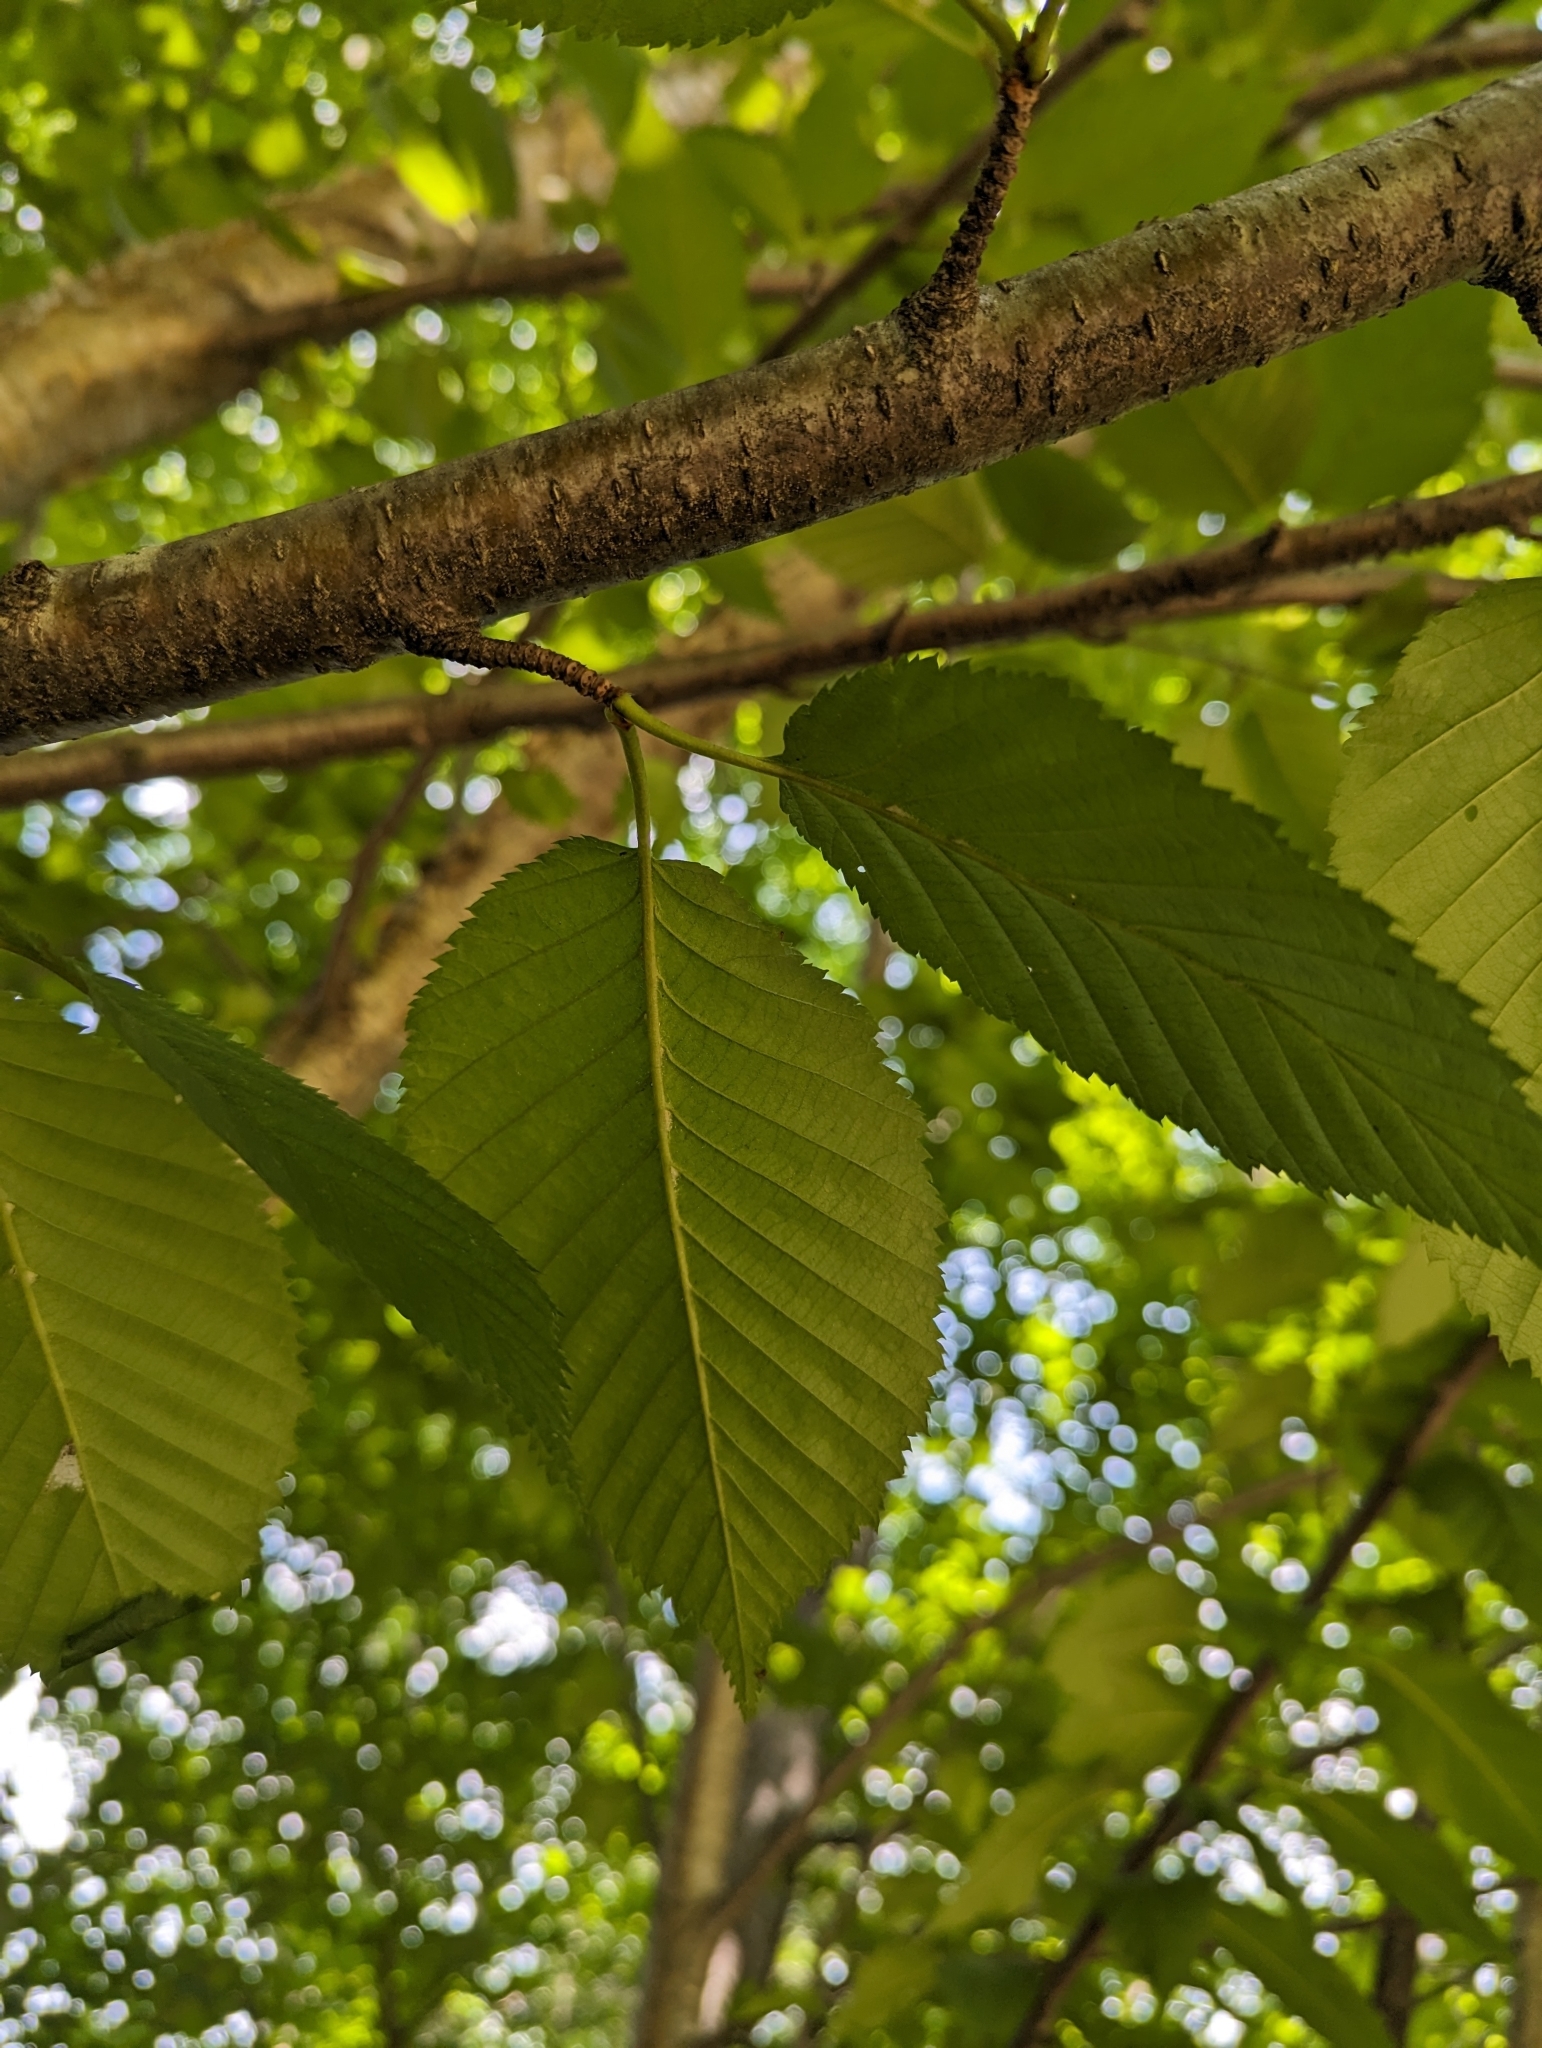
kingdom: Plantae
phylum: Tracheophyta
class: Magnoliopsida
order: Fagales
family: Betulaceae
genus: Betula
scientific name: Betula alleghaniensis
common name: Yellow birch
